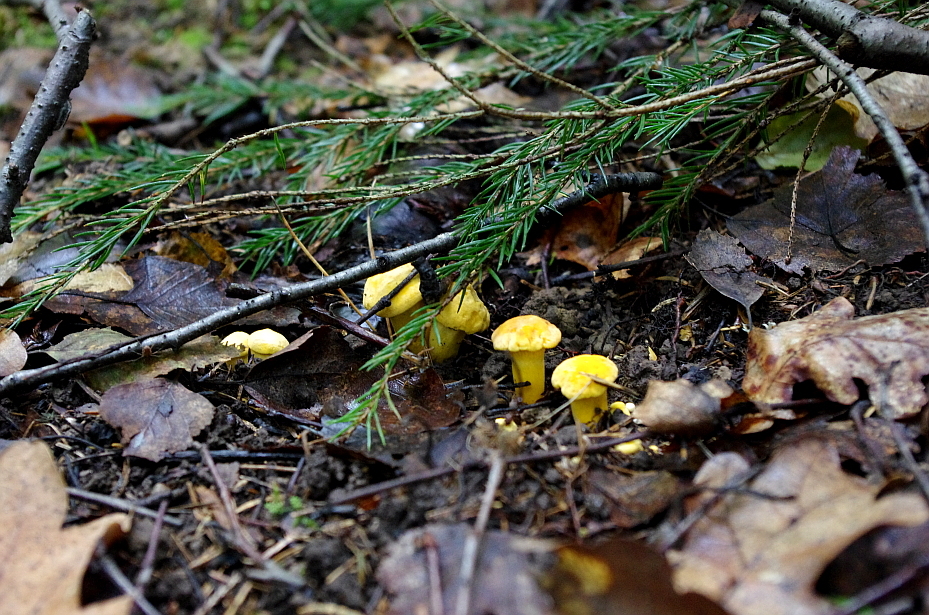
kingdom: Fungi
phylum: Basidiomycota
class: Agaricomycetes
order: Cantharellales
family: Hydnaceae
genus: Cantharellus
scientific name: Cantharellus cibarius
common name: Chanterelle
